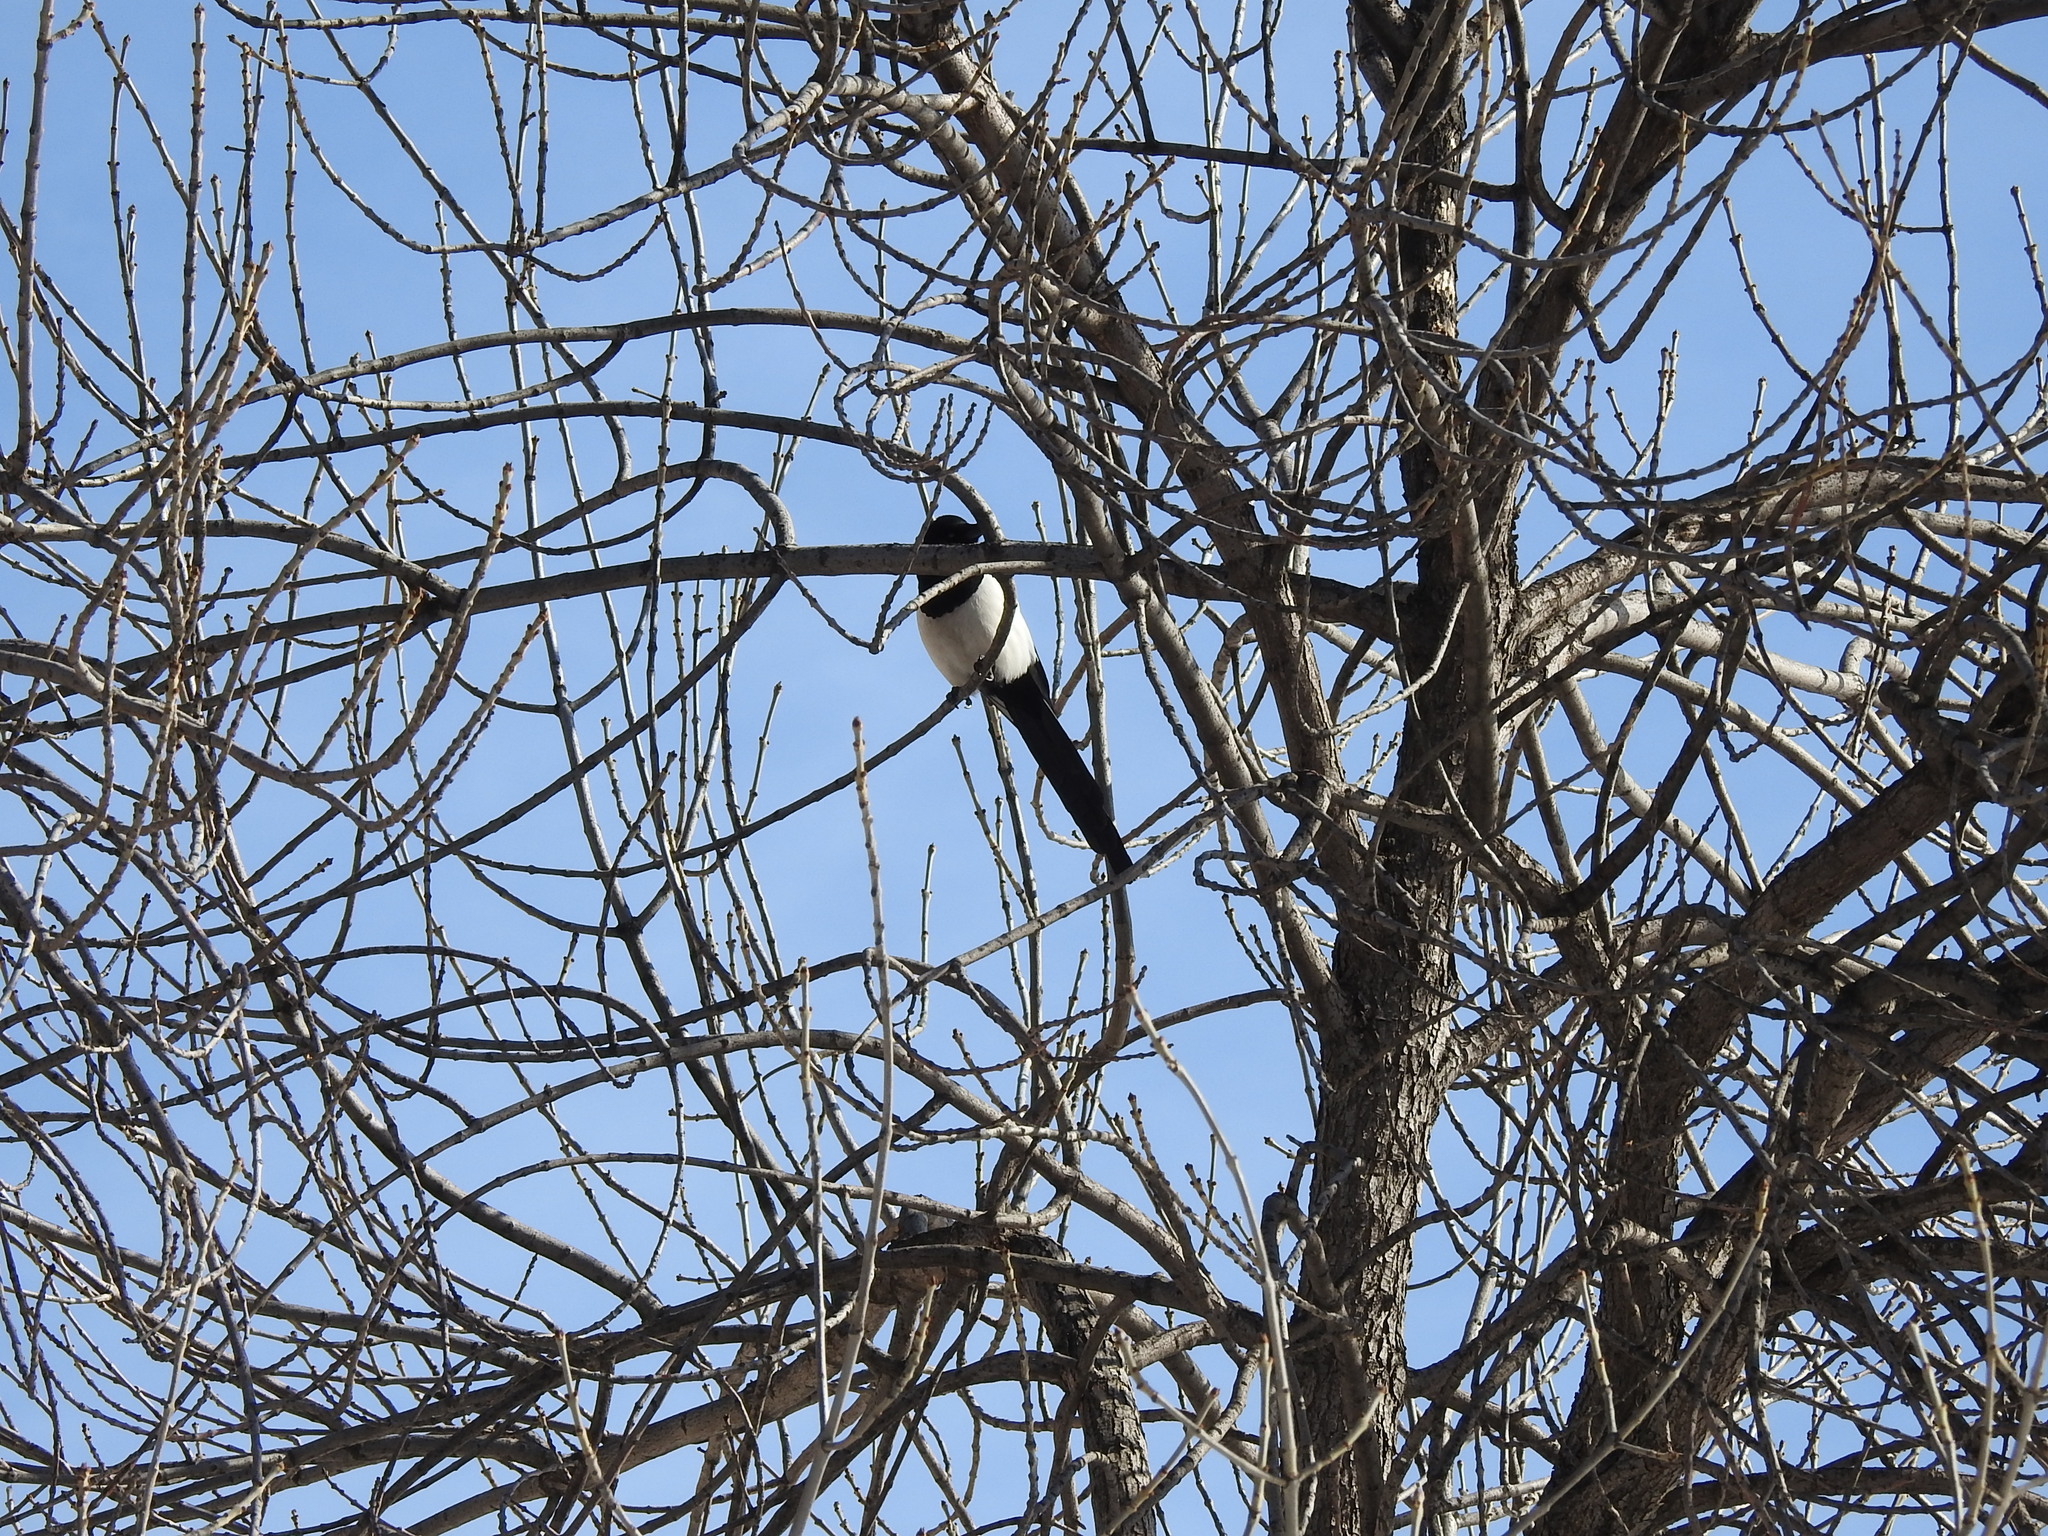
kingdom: Animalia
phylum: Chordata
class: Aves
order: Passeriformes
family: Corvidae
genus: Pica
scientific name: Pica pica
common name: Eurasian magpie
